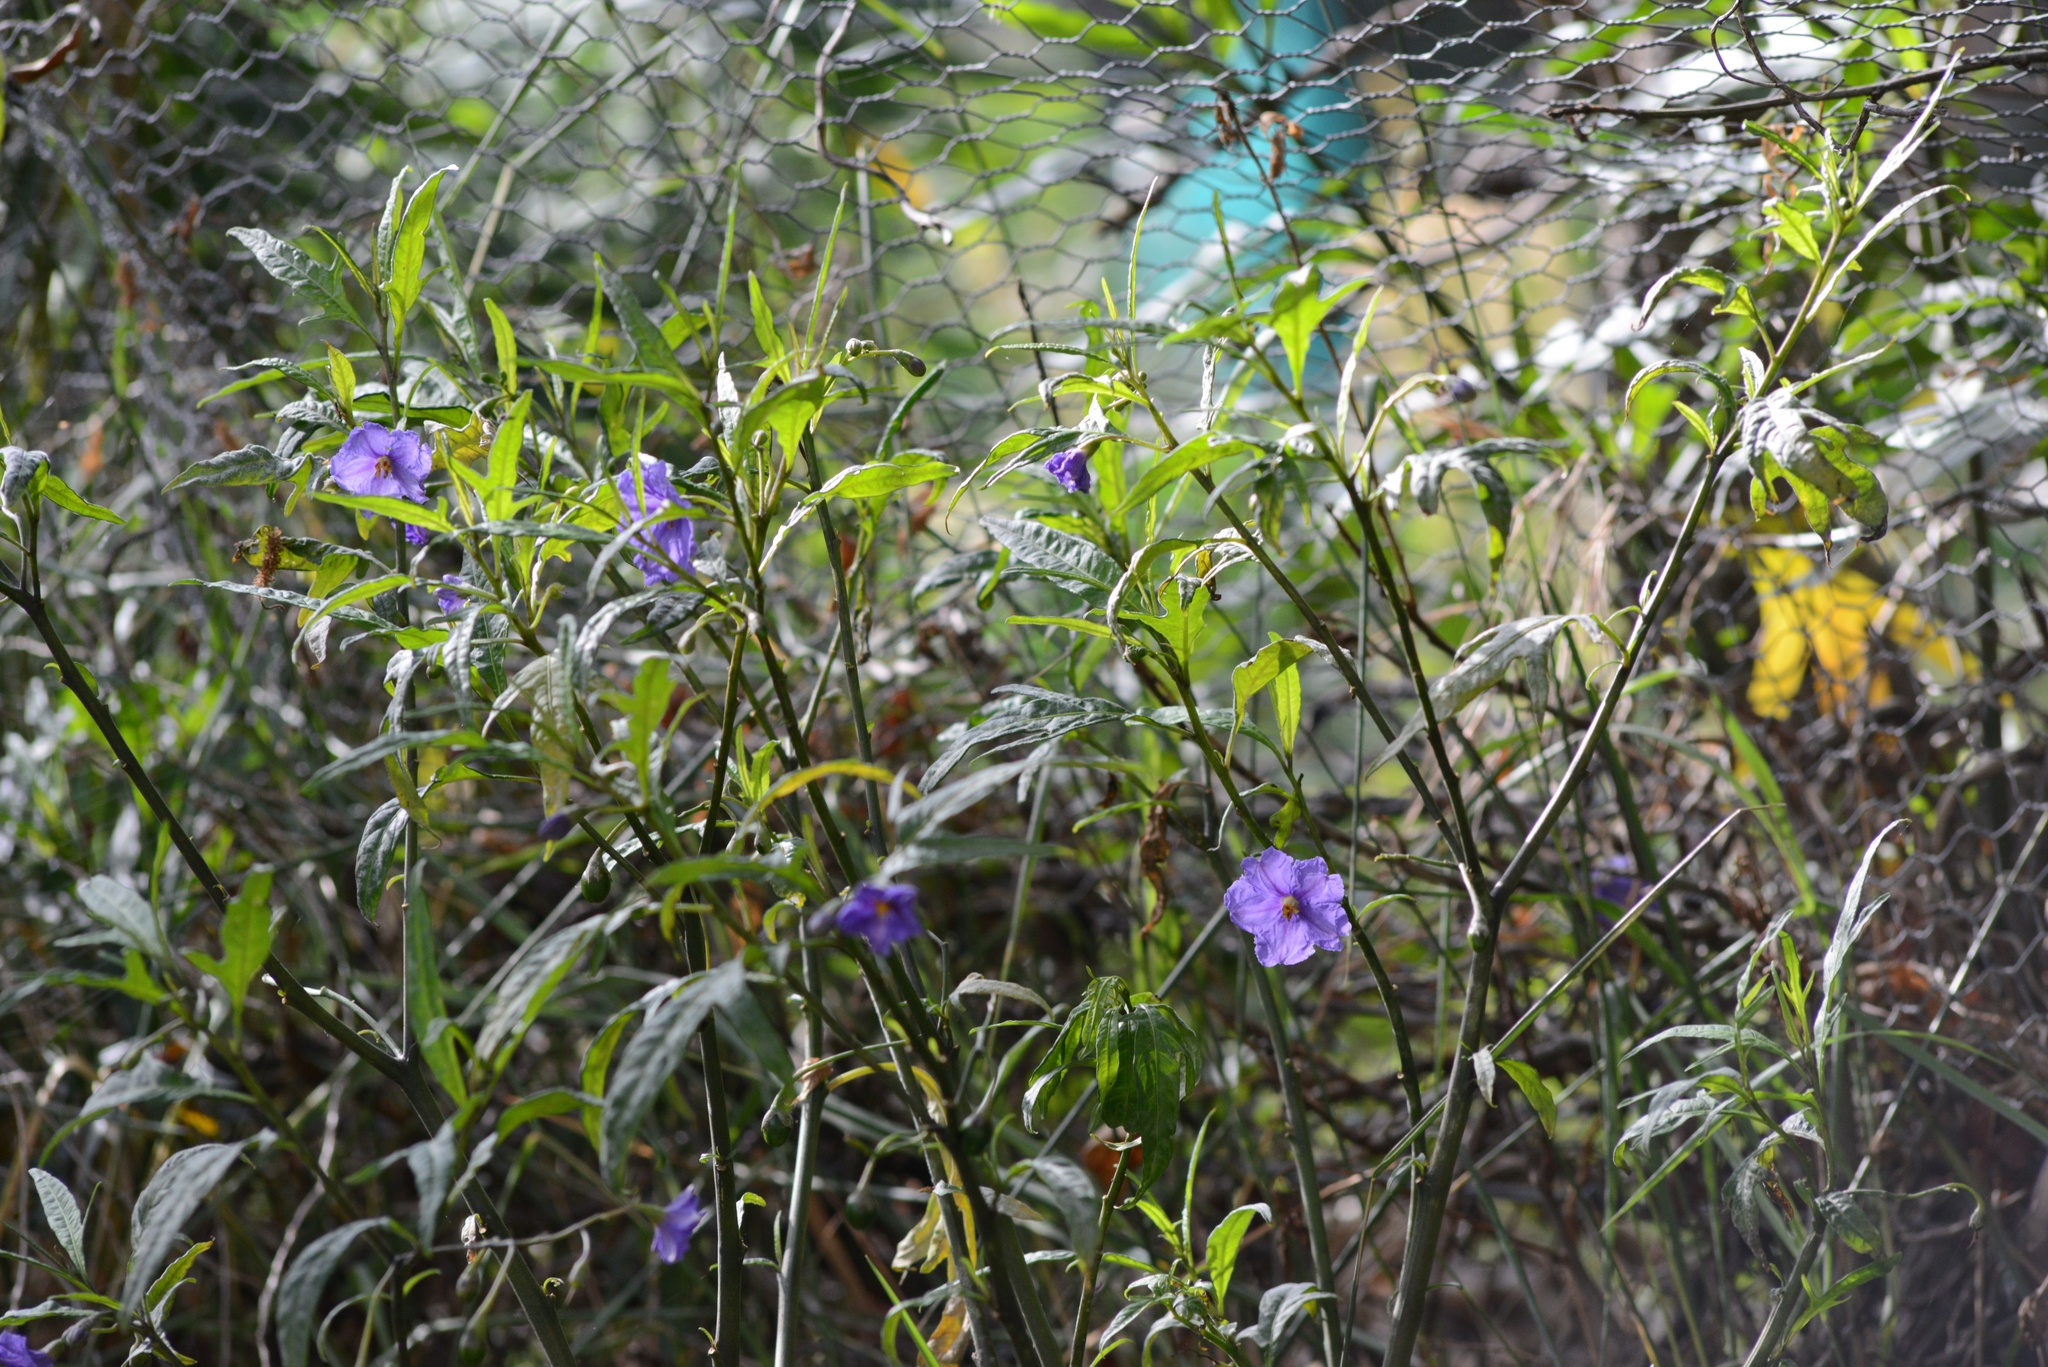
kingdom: Plantae
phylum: Tracheophyta
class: Magnoliopsida
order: Solanales
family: Solanaceae
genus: Solanum
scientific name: Solanum laciniatum
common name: Kangaroo-apple
